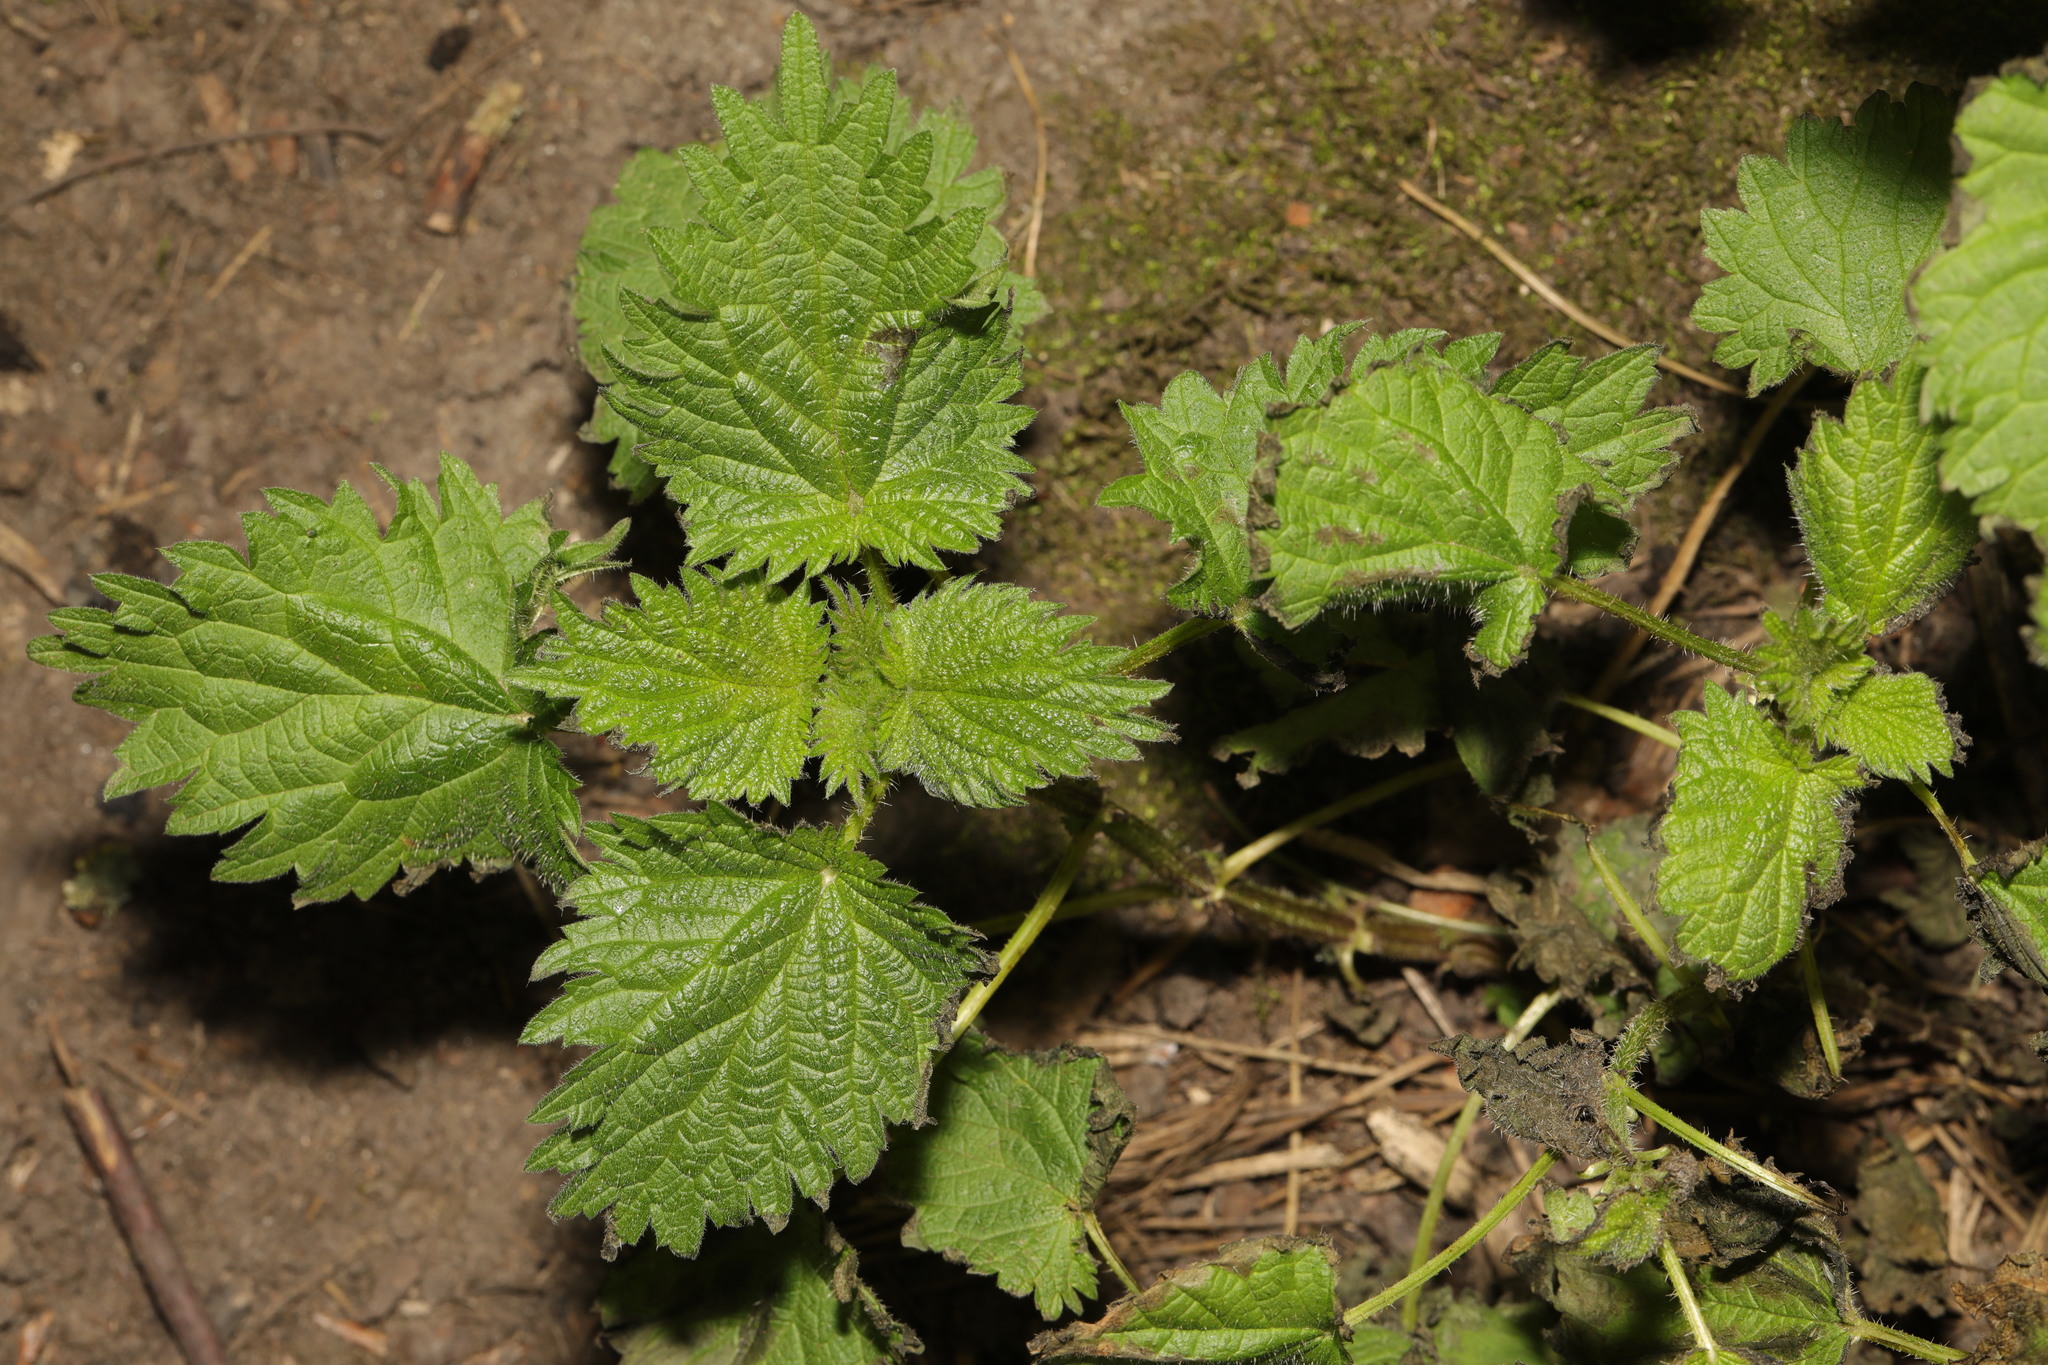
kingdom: Plantae
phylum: Tracheophyta
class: Magnoliopsida
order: Rosales
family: Urticaceae
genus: Urtica
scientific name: Urtica dioica
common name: Common nettle
